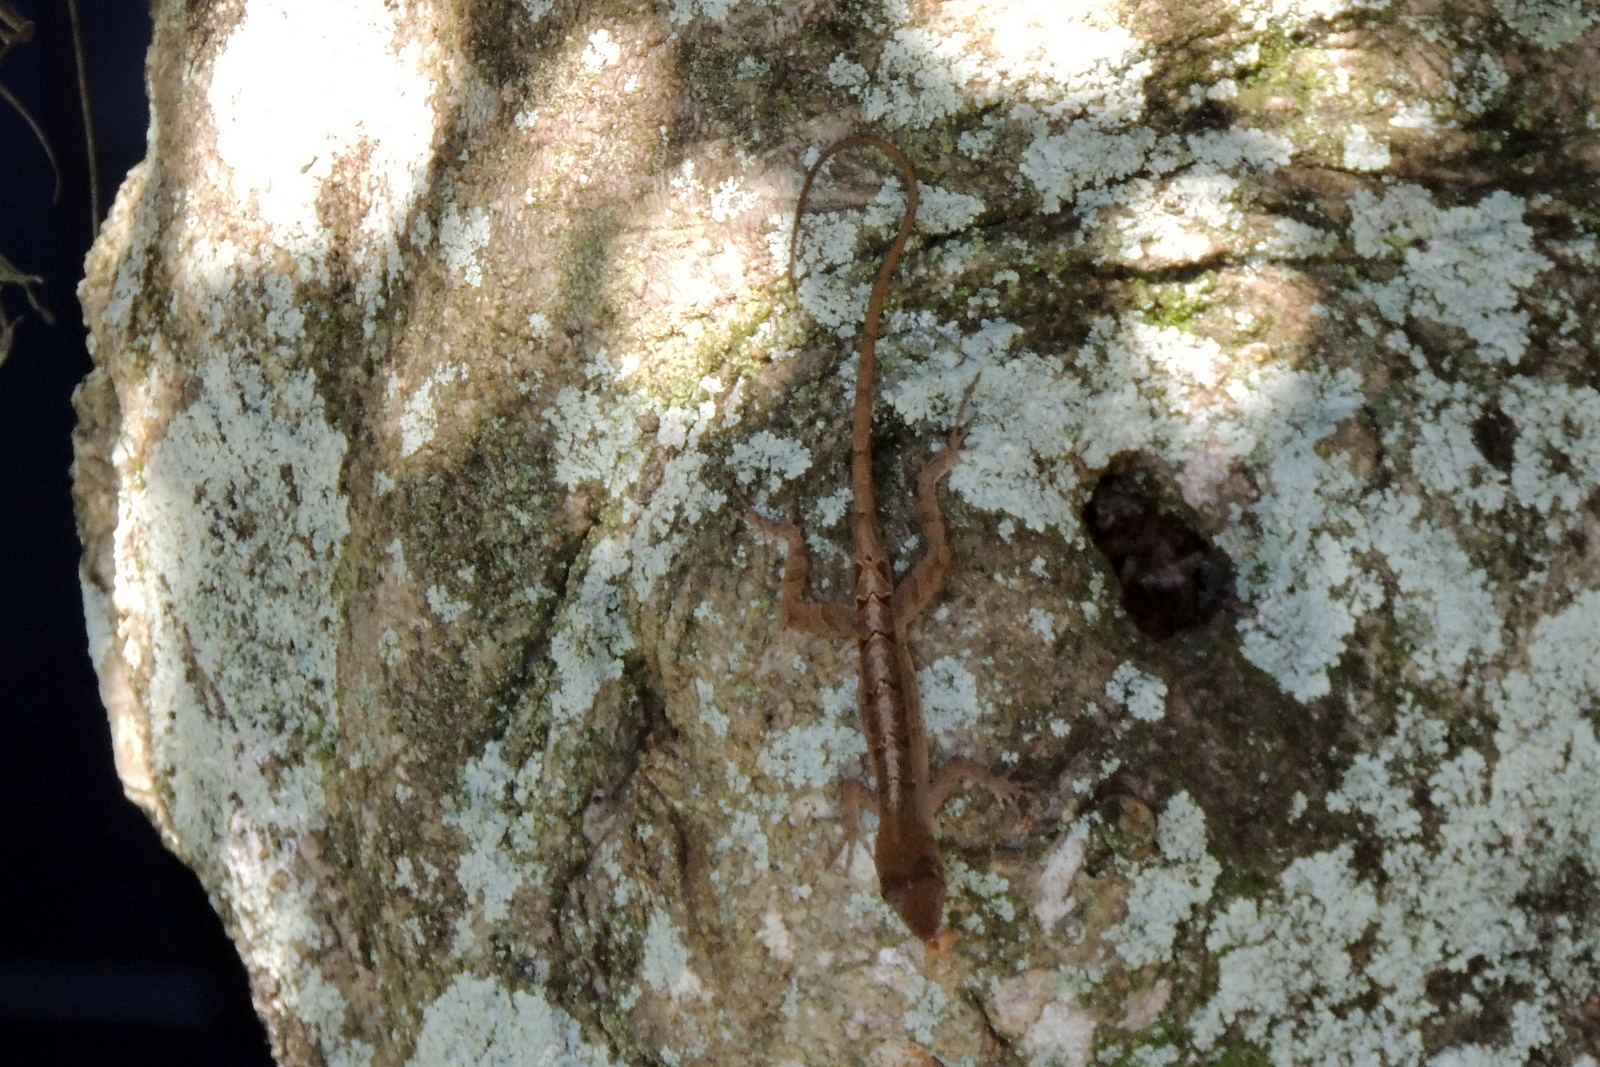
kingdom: Animalia
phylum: Chordata
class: Squamata
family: Dactyloidae
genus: Anolis
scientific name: Anolis sagrei
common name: Brown anole
